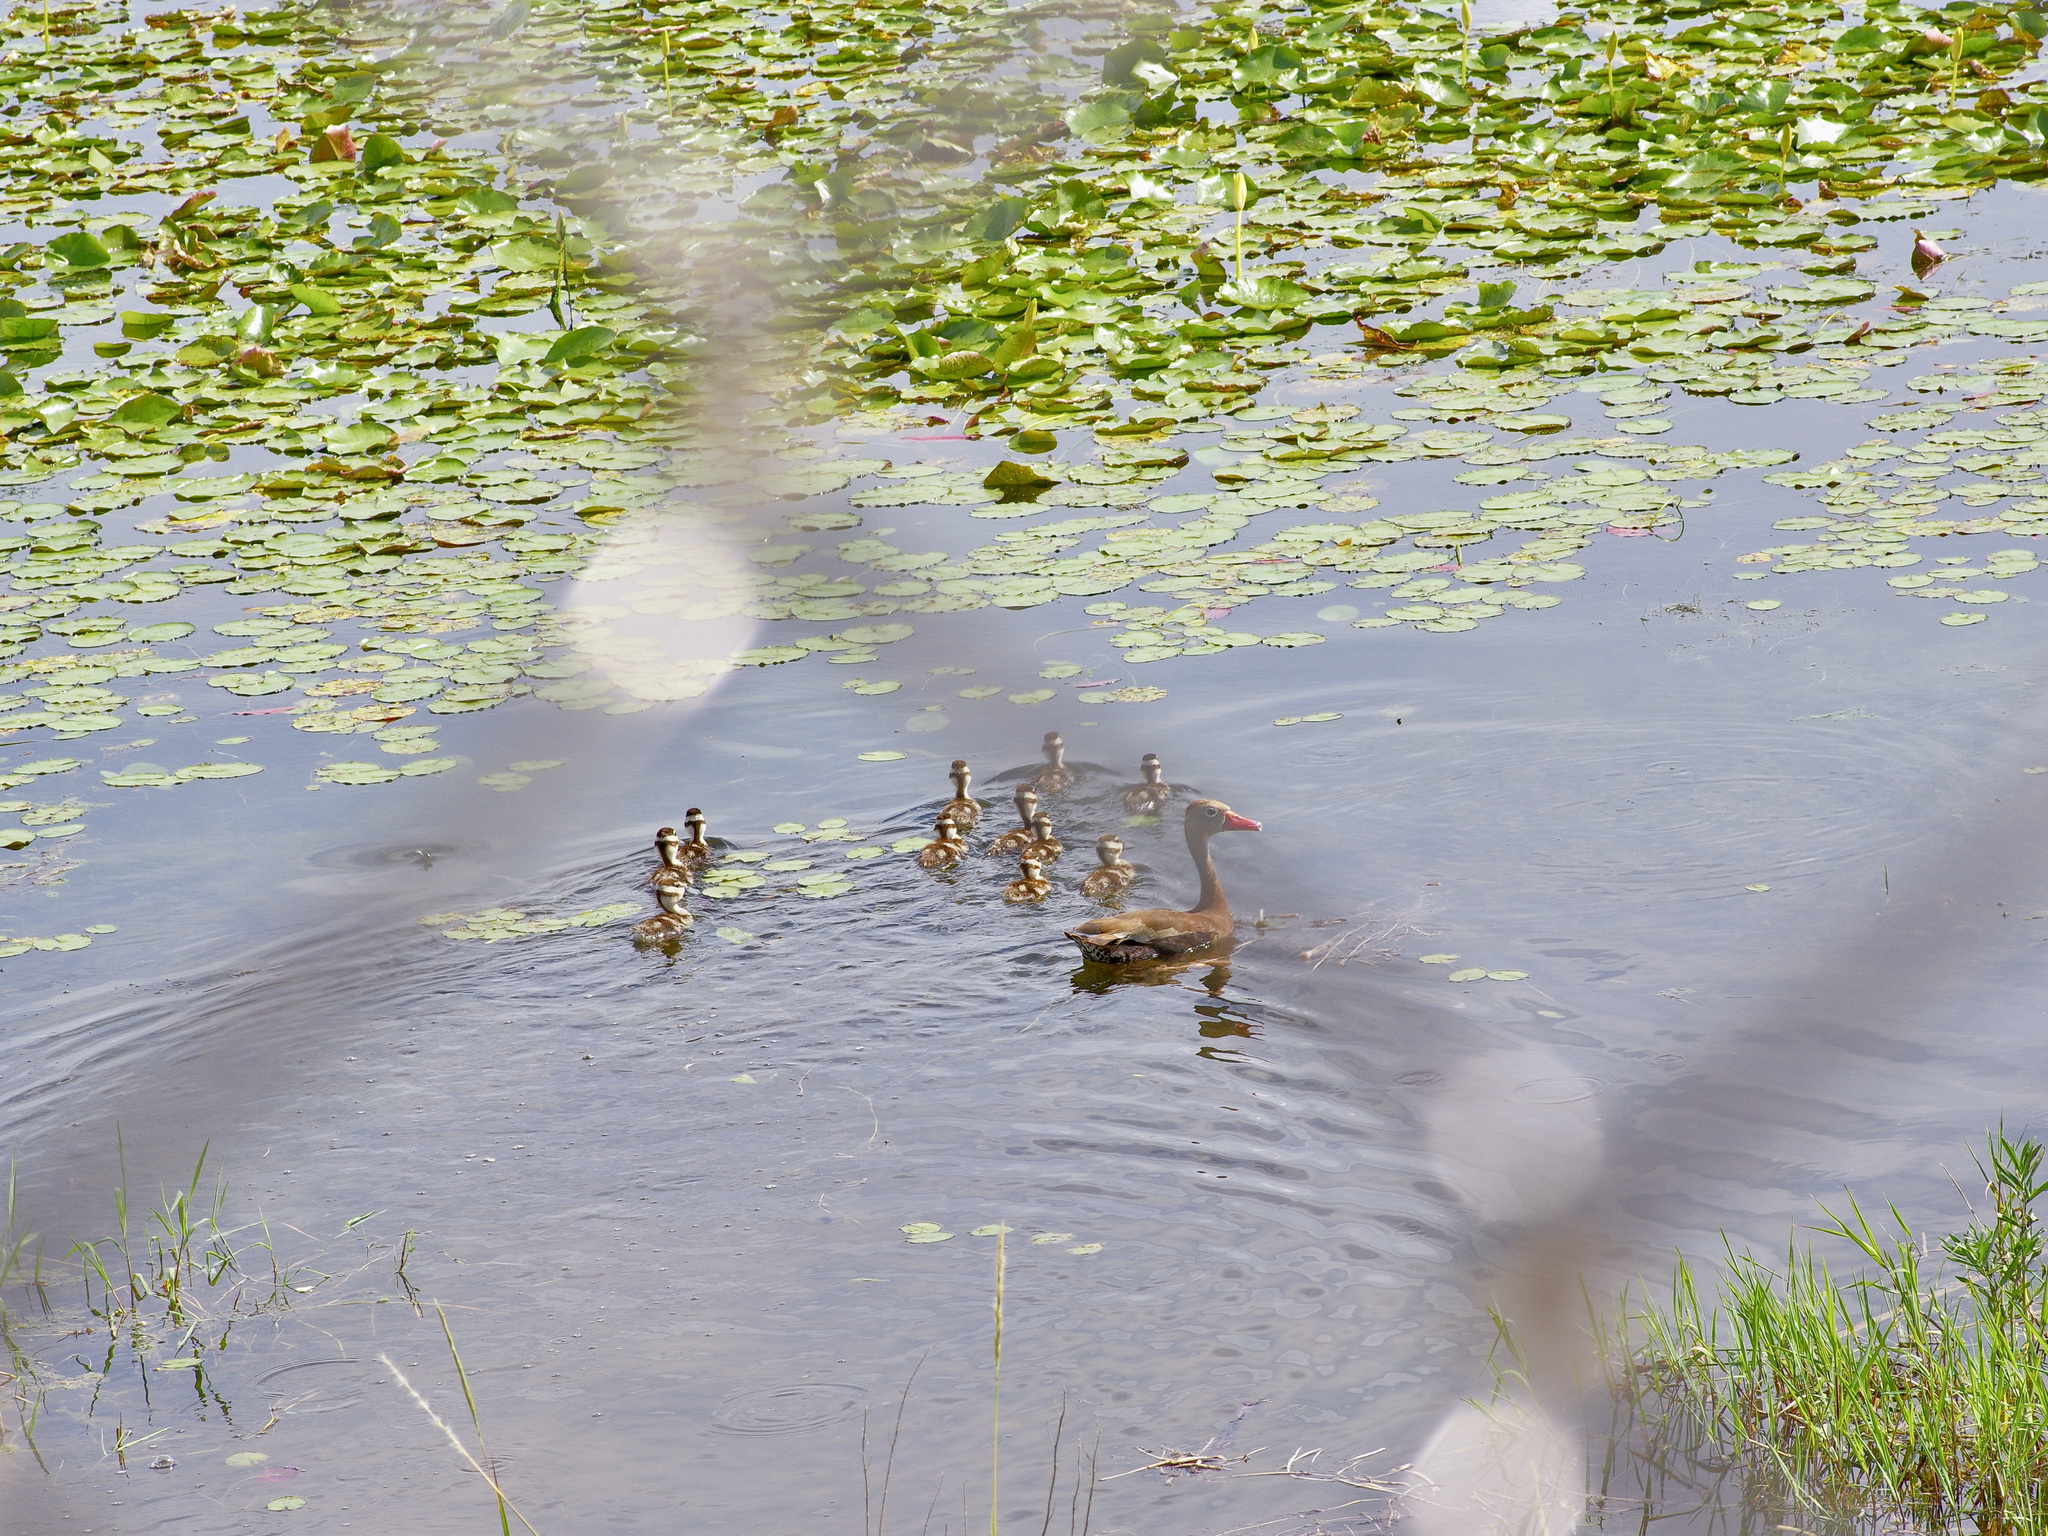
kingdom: Animalia
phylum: Chordata
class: Aves
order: Anseriformes
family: Anatidae
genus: Dendrocygna
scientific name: Dendrocygna autumnalis
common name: Black-bellied whistling duck
